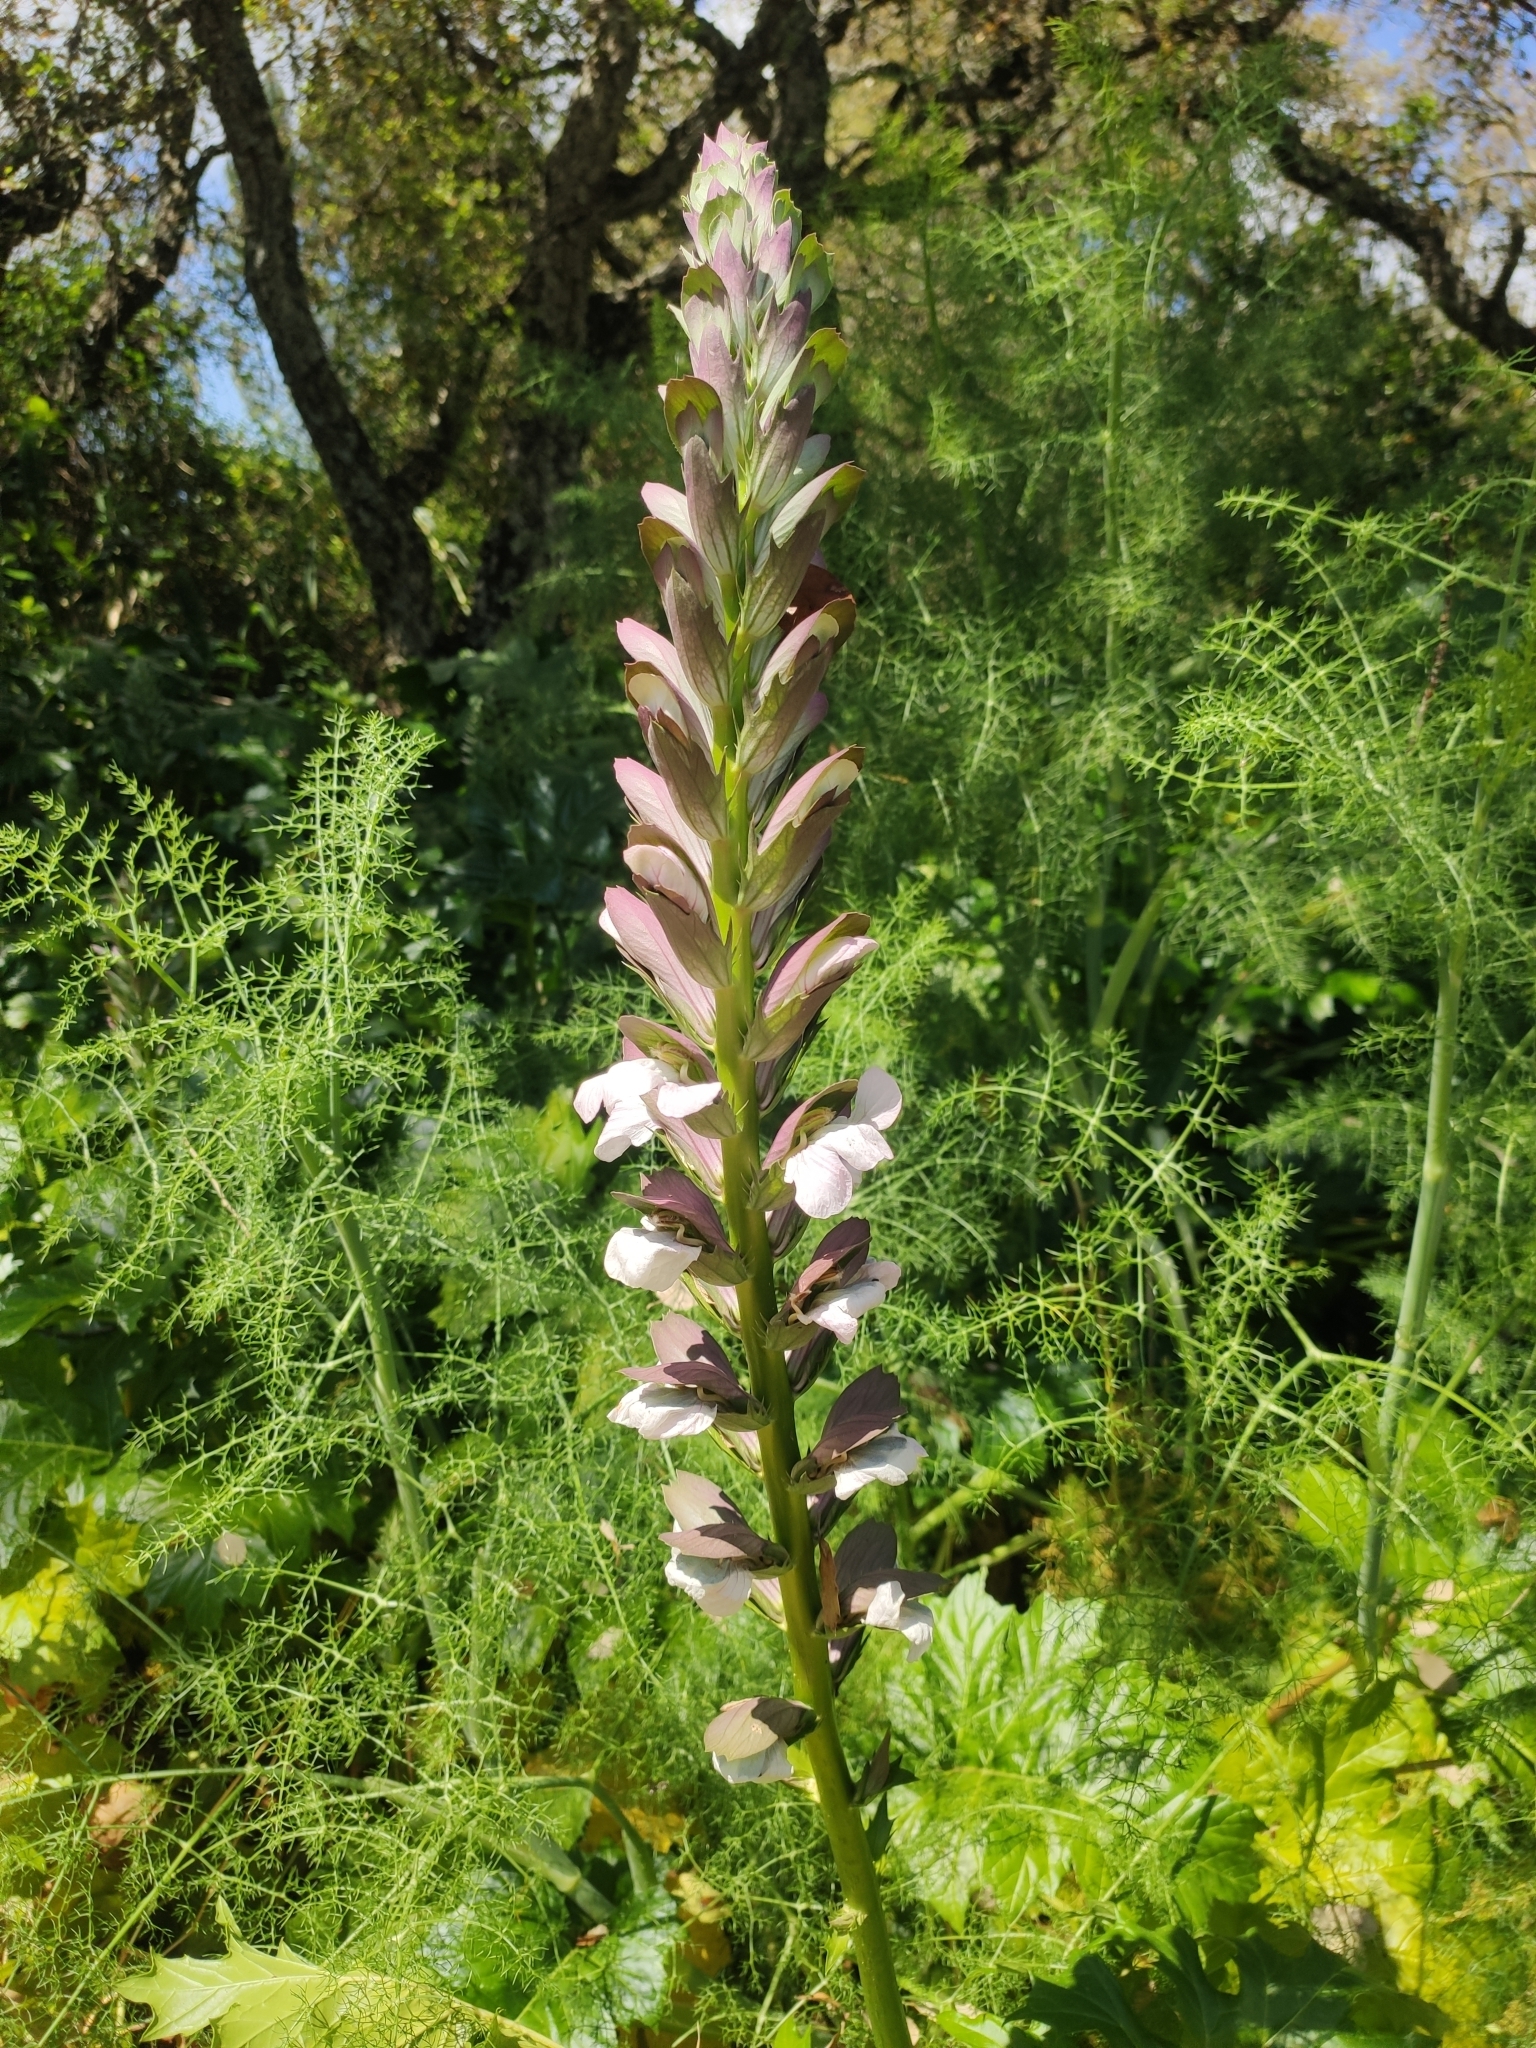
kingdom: Plantae
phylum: Tracheophyta
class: Magnoliopsida
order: Lamiales
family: Acanthaceae
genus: Acanthus
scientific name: Acanthus mollis
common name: Bear's-breech
